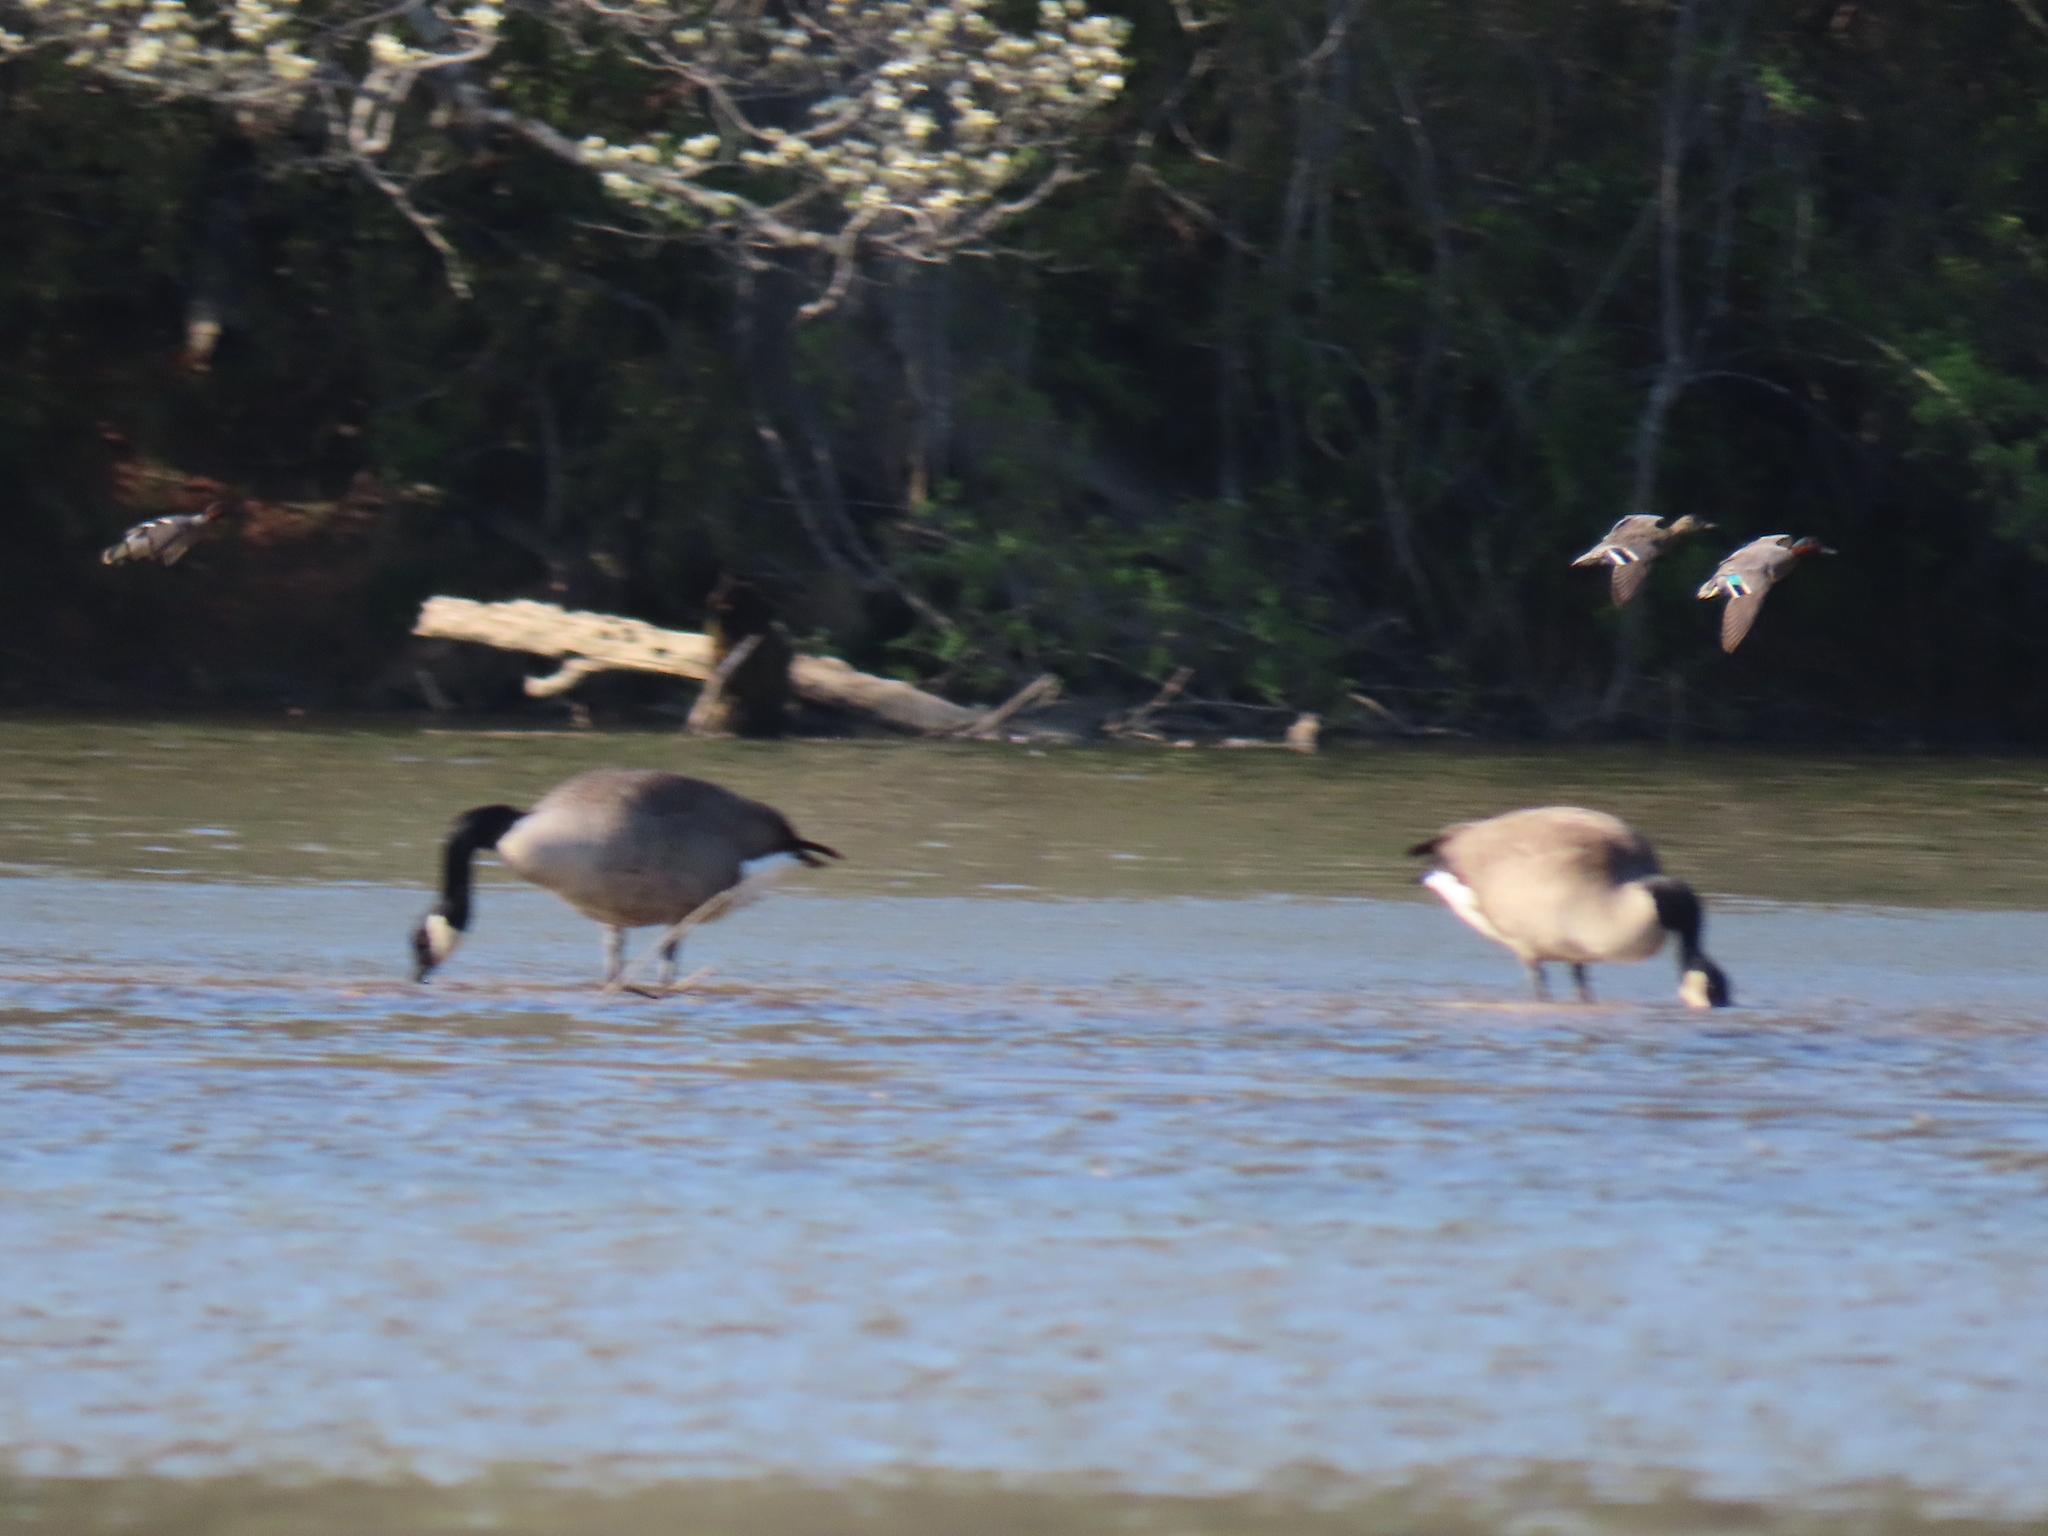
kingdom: Animalia
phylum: Chordata
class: Aves
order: Anseriformes
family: Anatidae
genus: Branta
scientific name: Branta canadensis
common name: Canada goose
